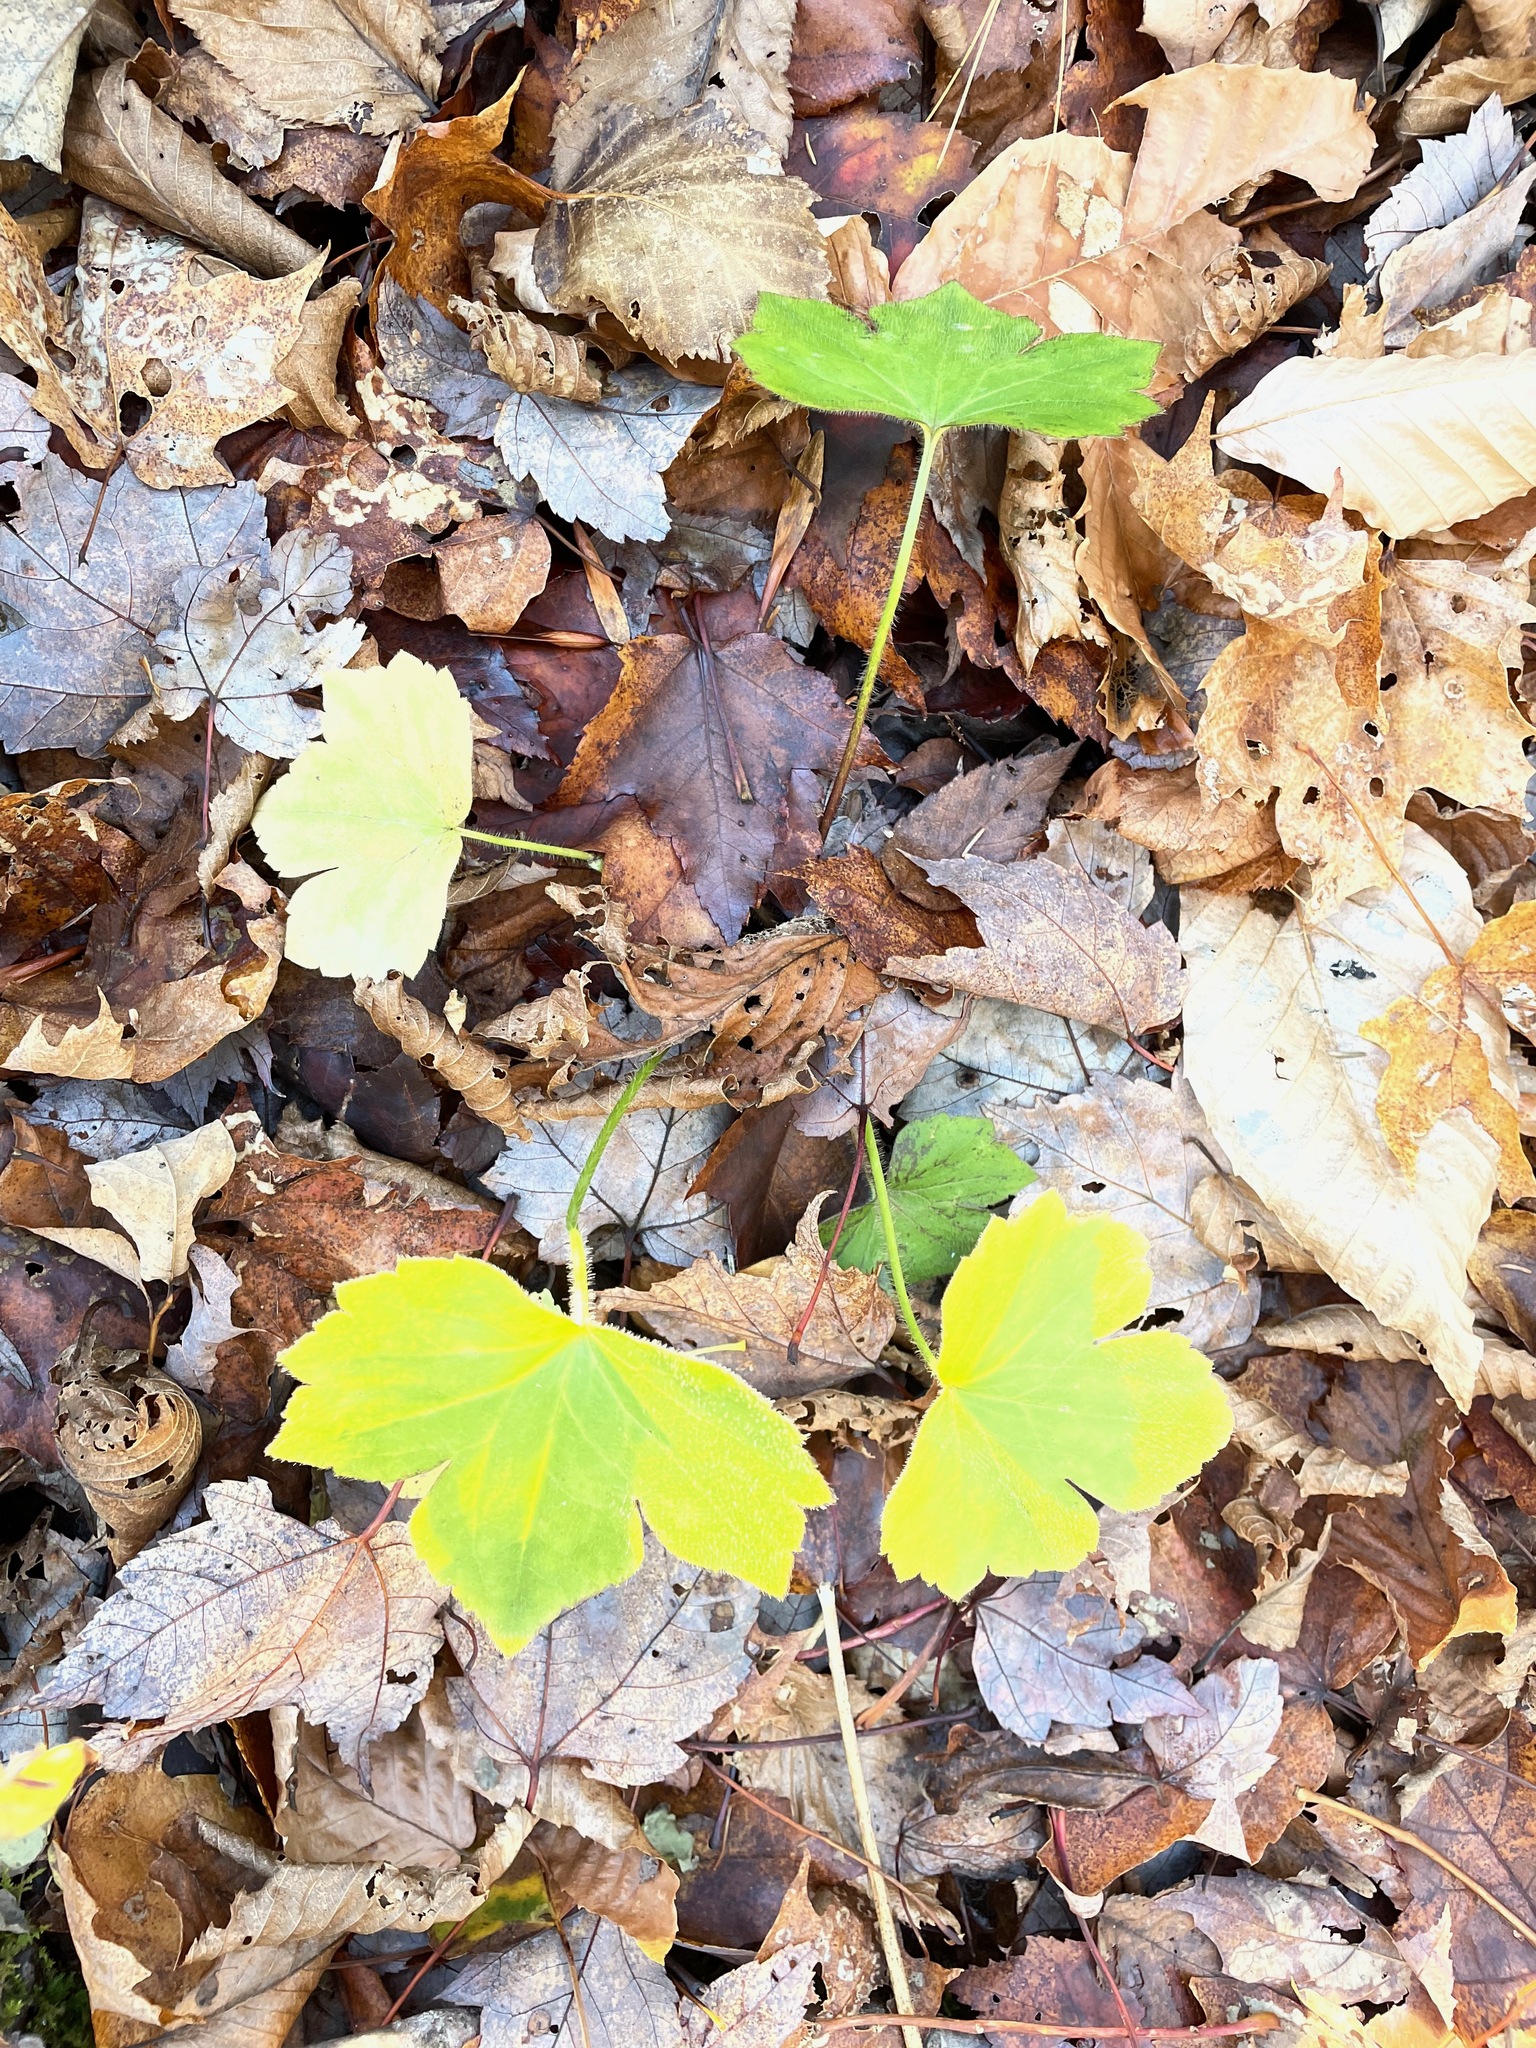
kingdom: Plantae
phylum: Tracheophyta
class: Magnoliopsida
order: Ranunculales
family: Ranunculaceae
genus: Ranunculus
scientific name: Ranunculus recurvatus
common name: Blisterwort
